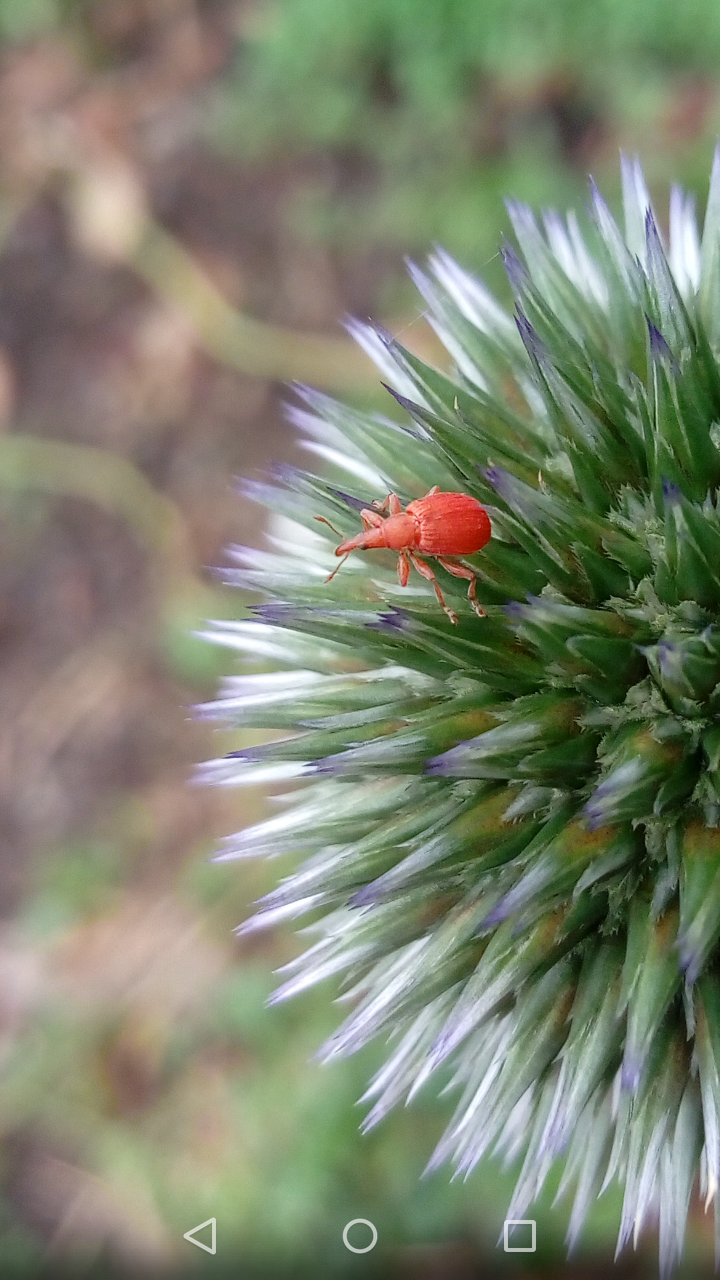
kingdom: Animalia
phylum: Arthropoda
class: Insecta
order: Coleoptera
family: Apionidae
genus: Apion
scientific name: Apion frumentarium
